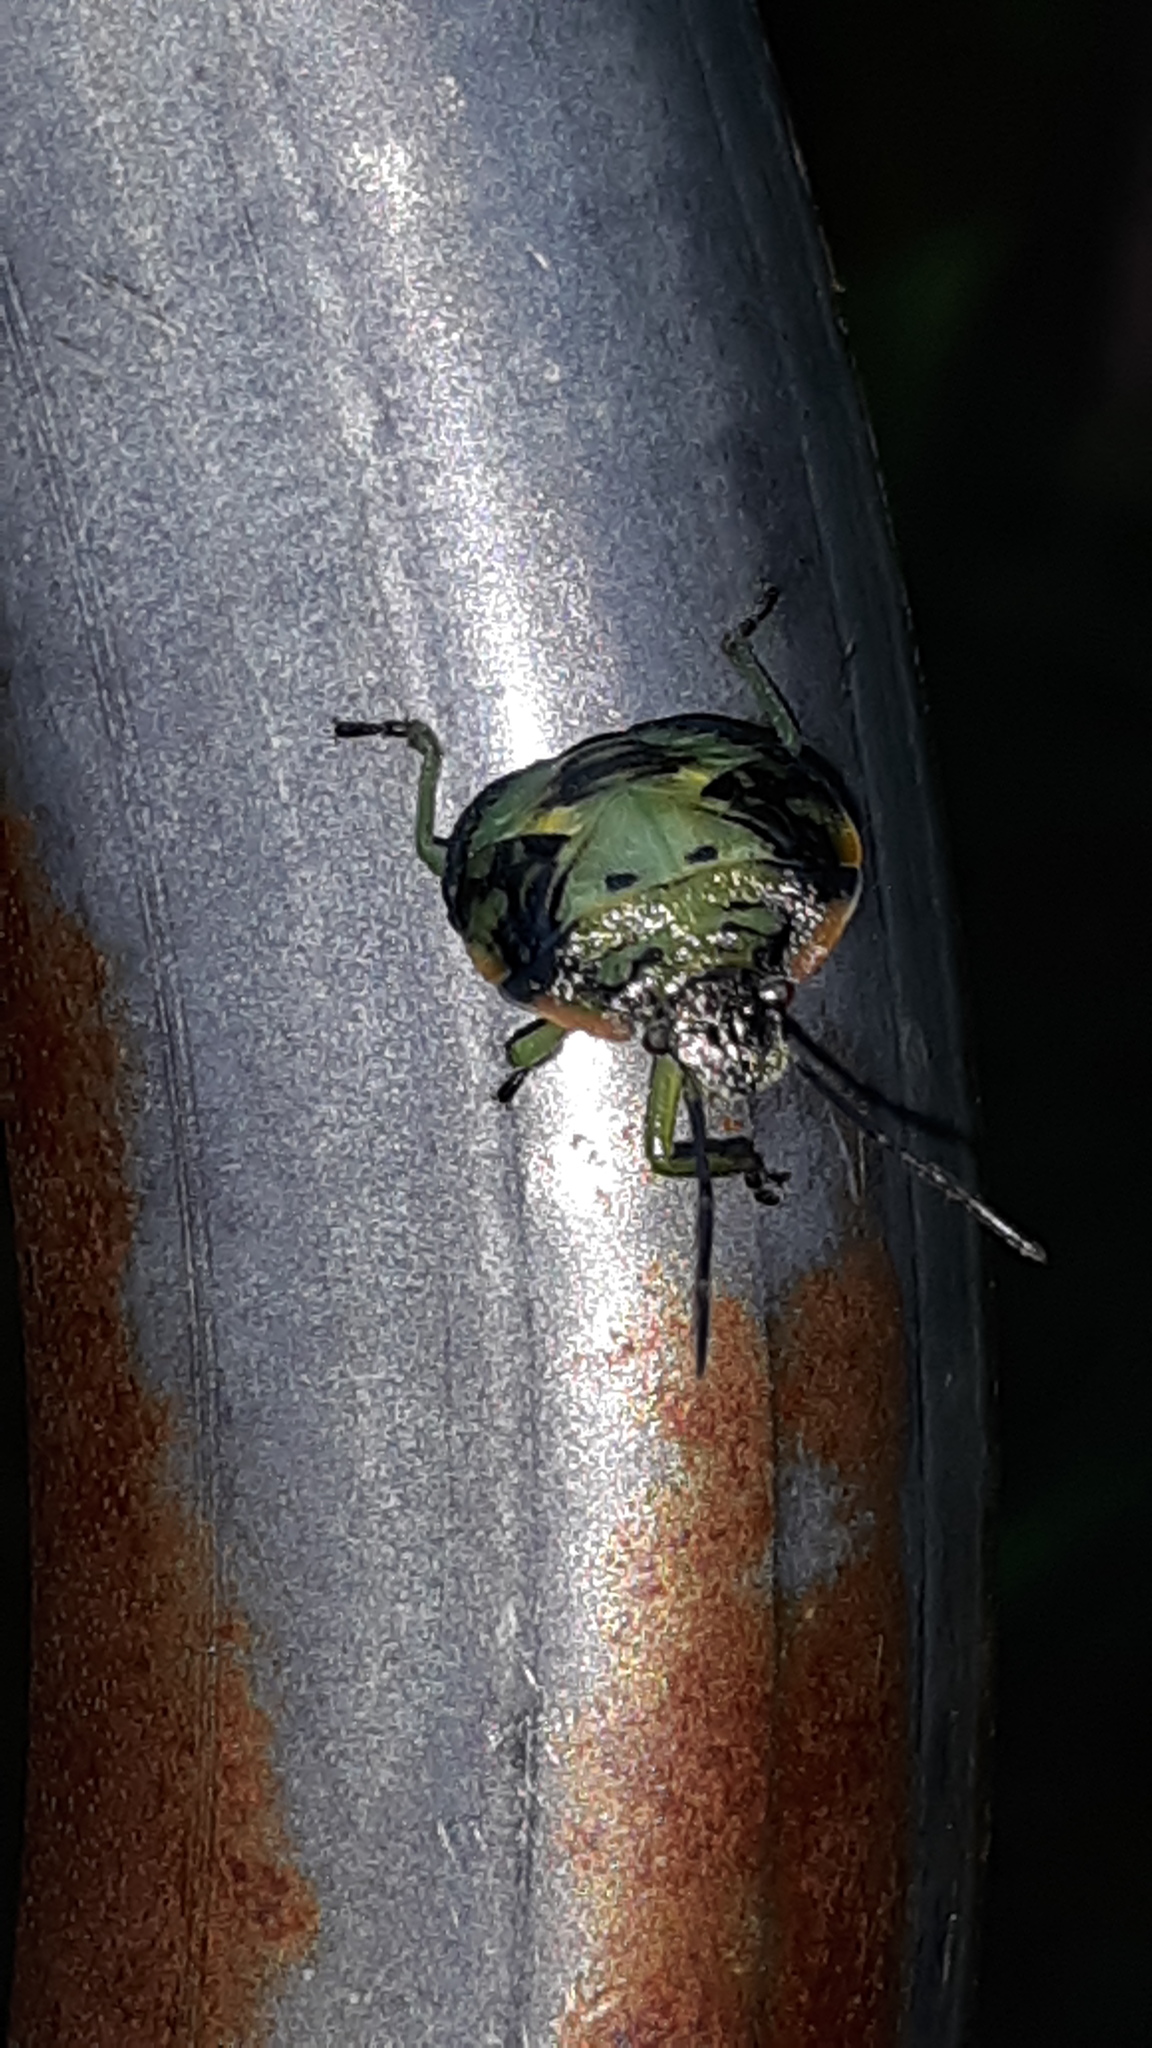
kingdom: Animalia
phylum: Arthropoda
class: Insecta
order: Hemiptera
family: Pentatomidae
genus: Chinavia
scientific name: Chinavia hilaris
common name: Green stink bug
